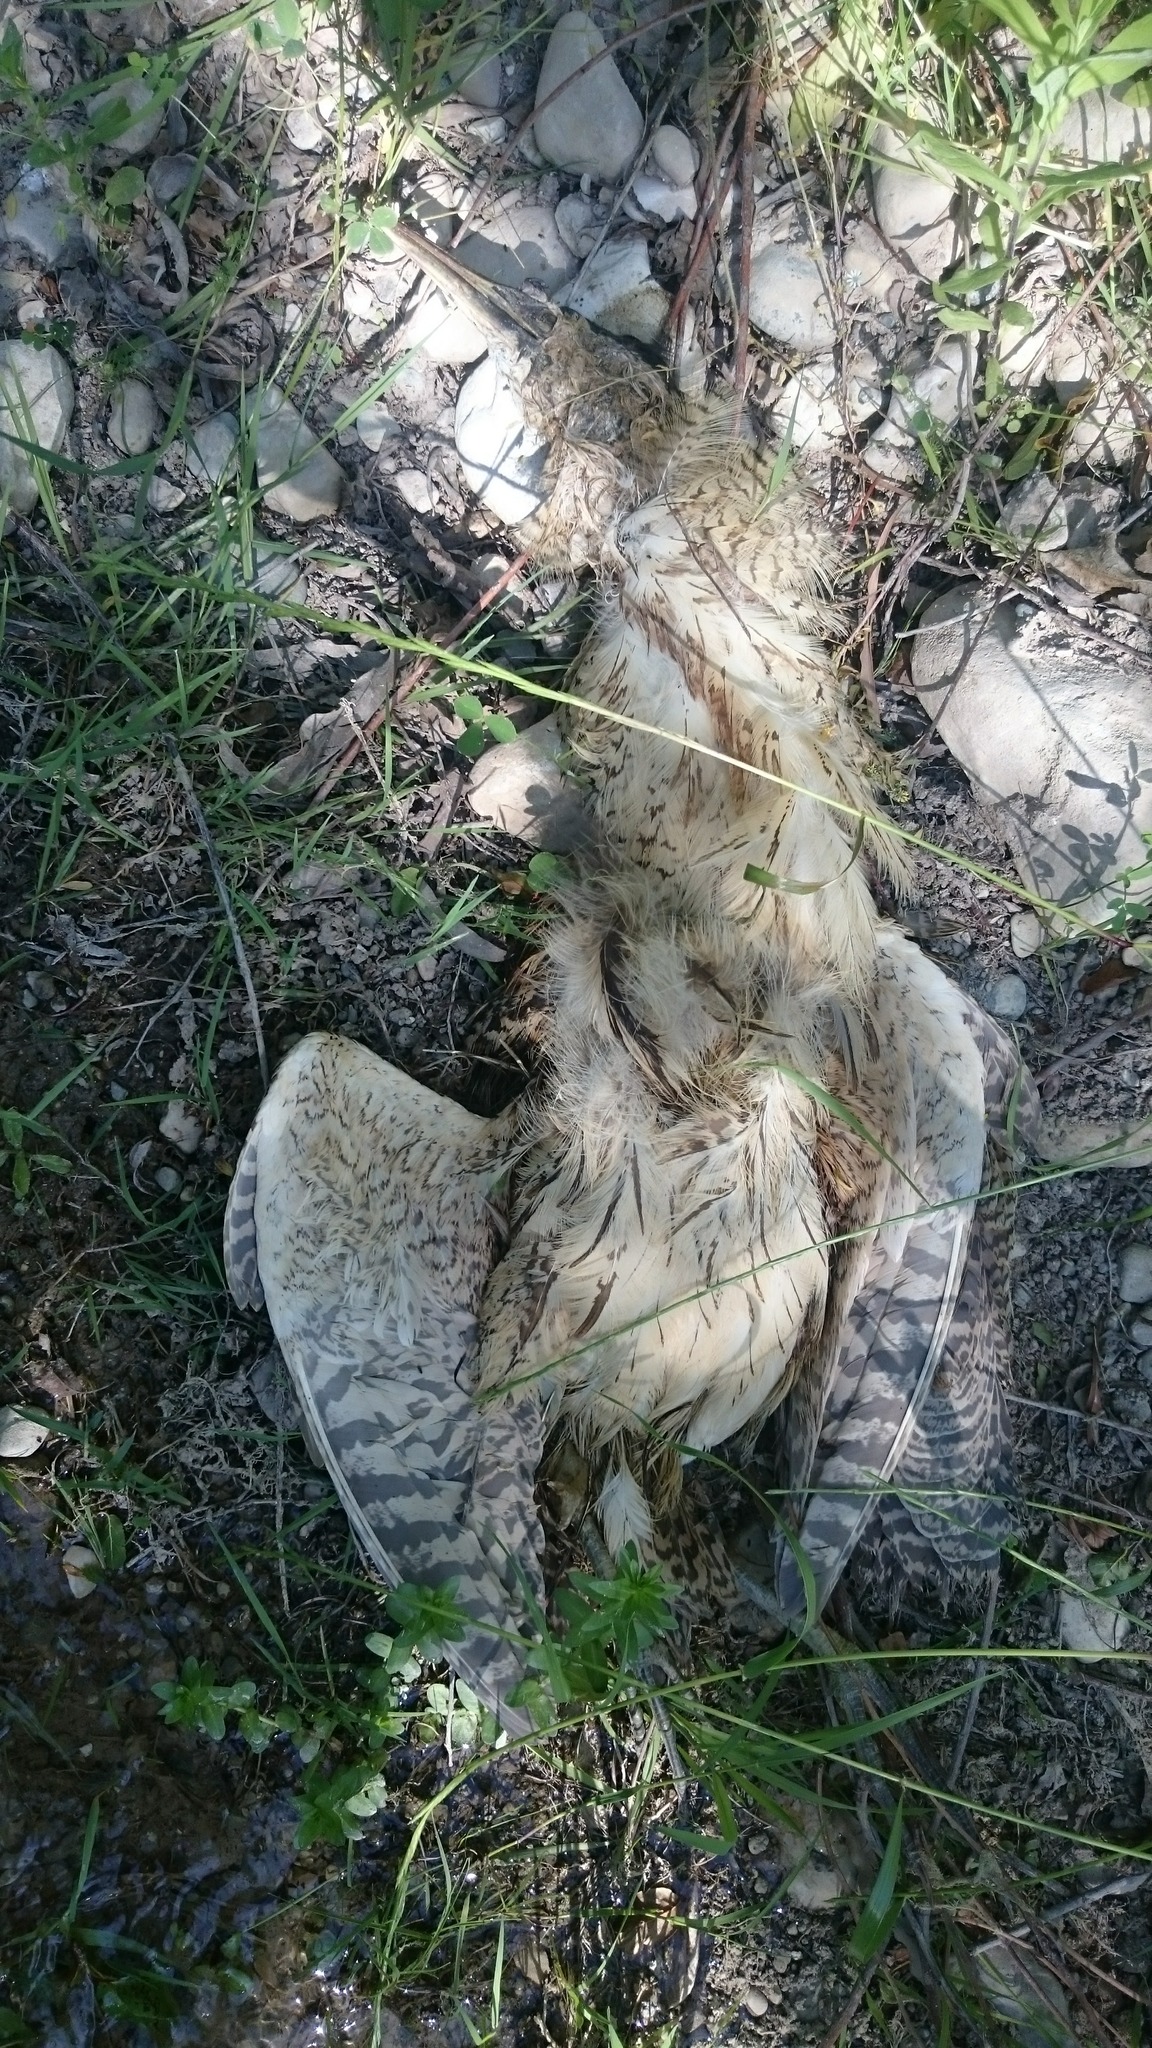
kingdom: Animalia
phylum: Chordata
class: Aves
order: Pelecaniformes
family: Ardeidae
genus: Botaurus
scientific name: Botaurus stellaris
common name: Eurasian bittern
